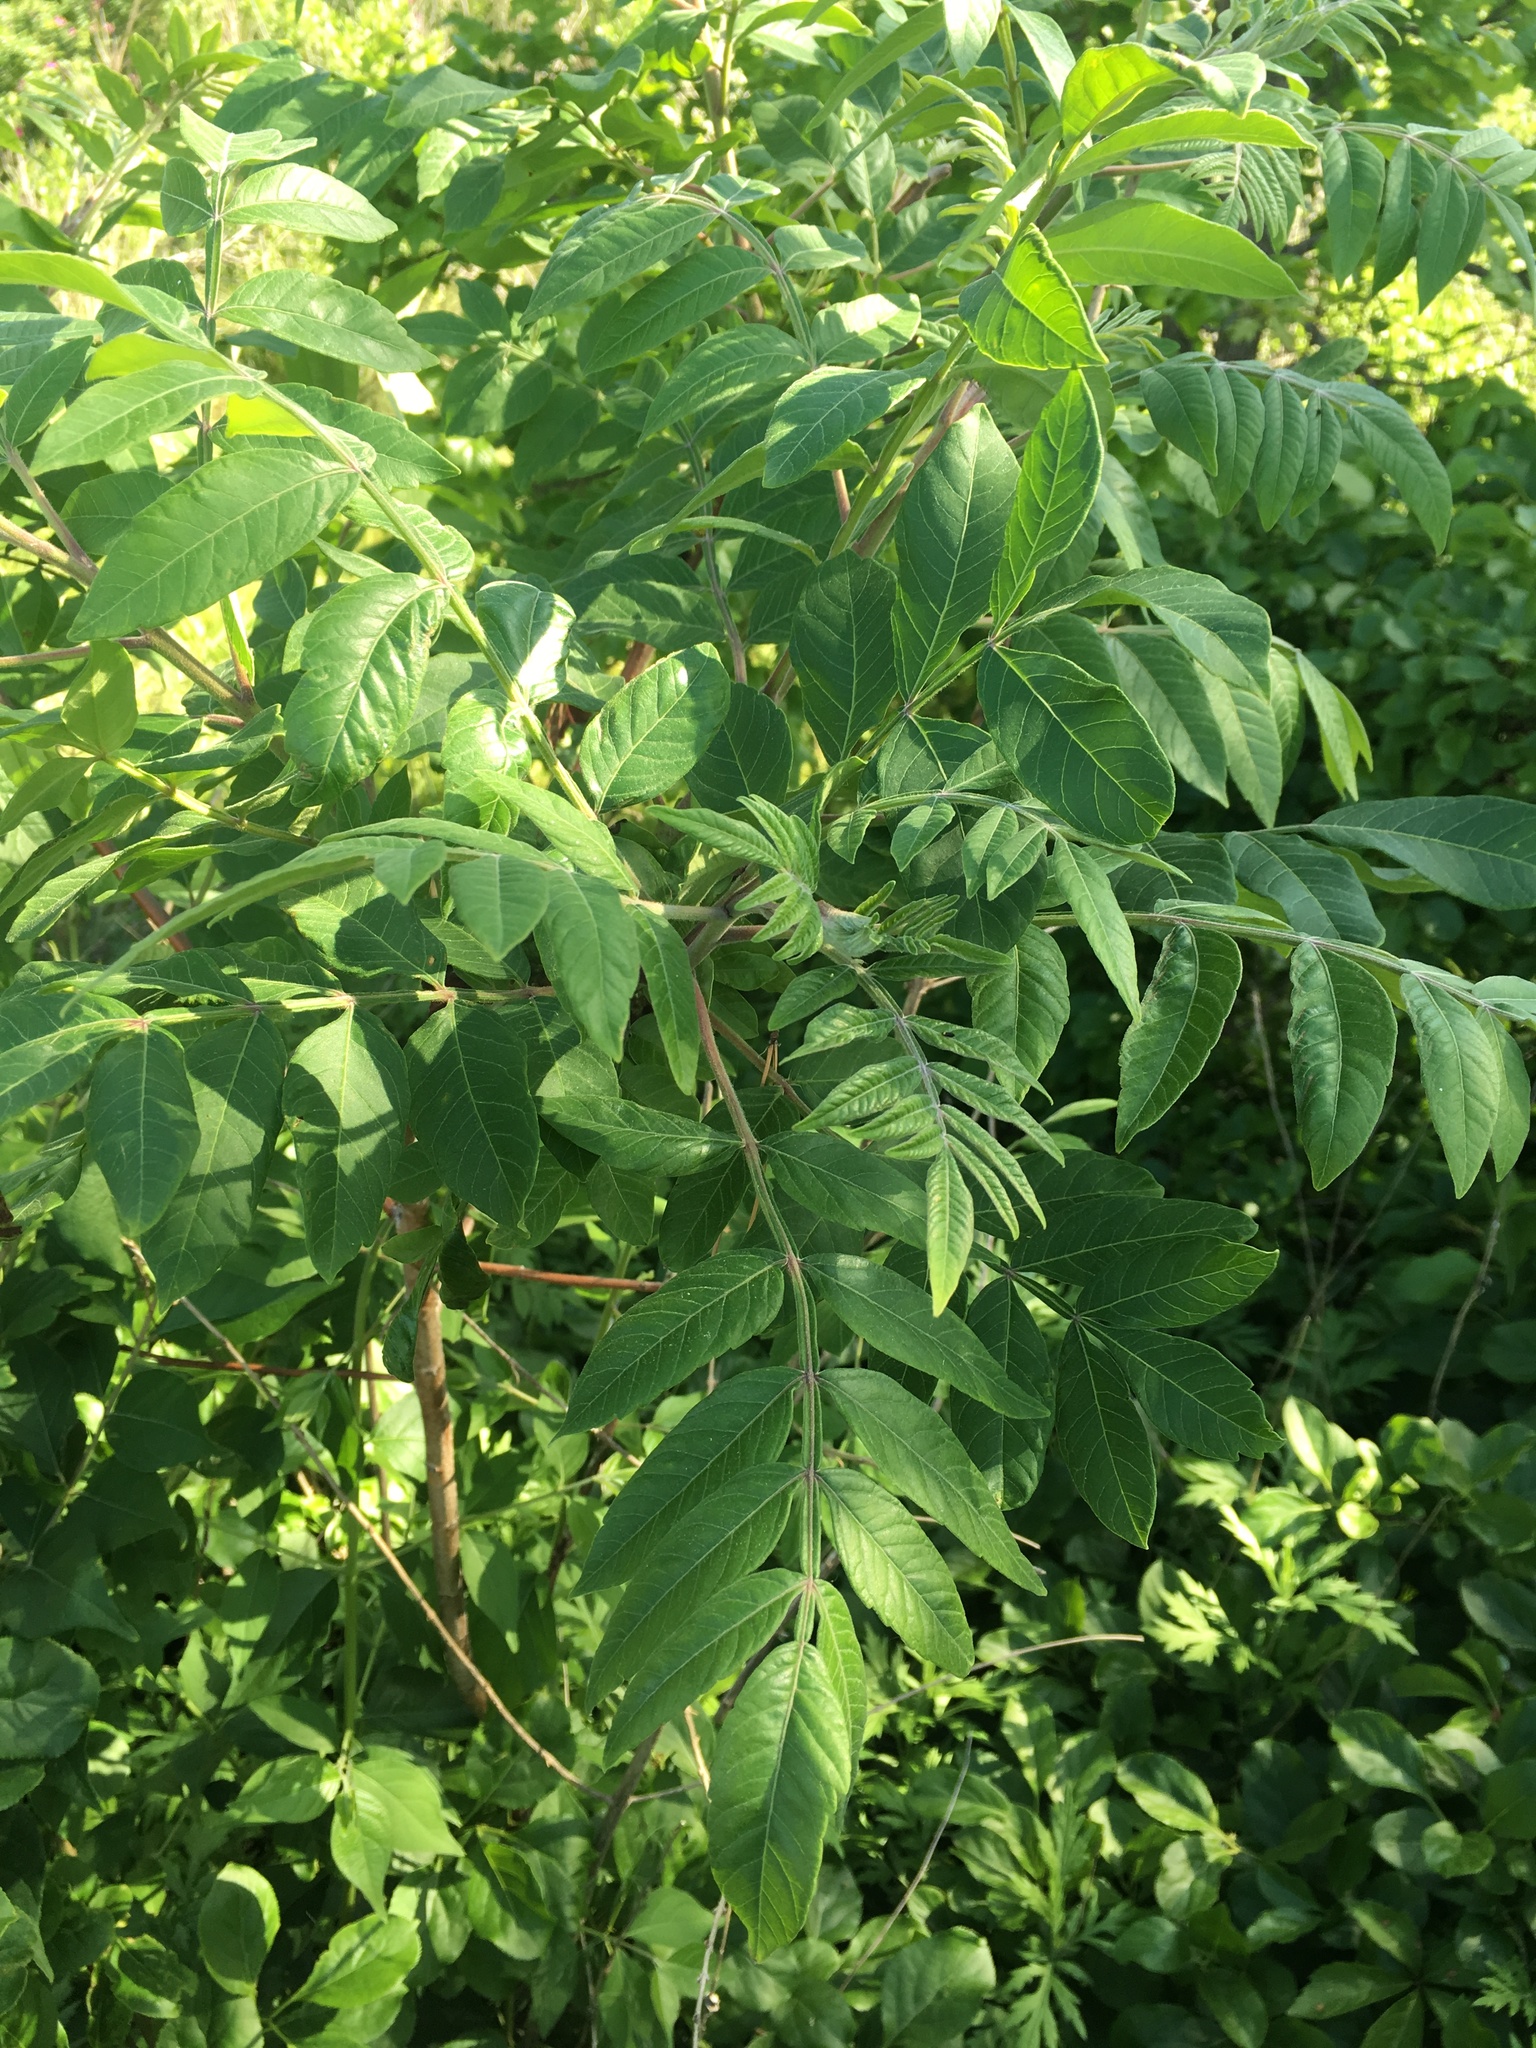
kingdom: Plantae
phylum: Tracheophyta
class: Magnoliopsida
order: Sapindales
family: Anacardiaceae
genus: Rhus
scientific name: Rhus copallina
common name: Shining sumac
